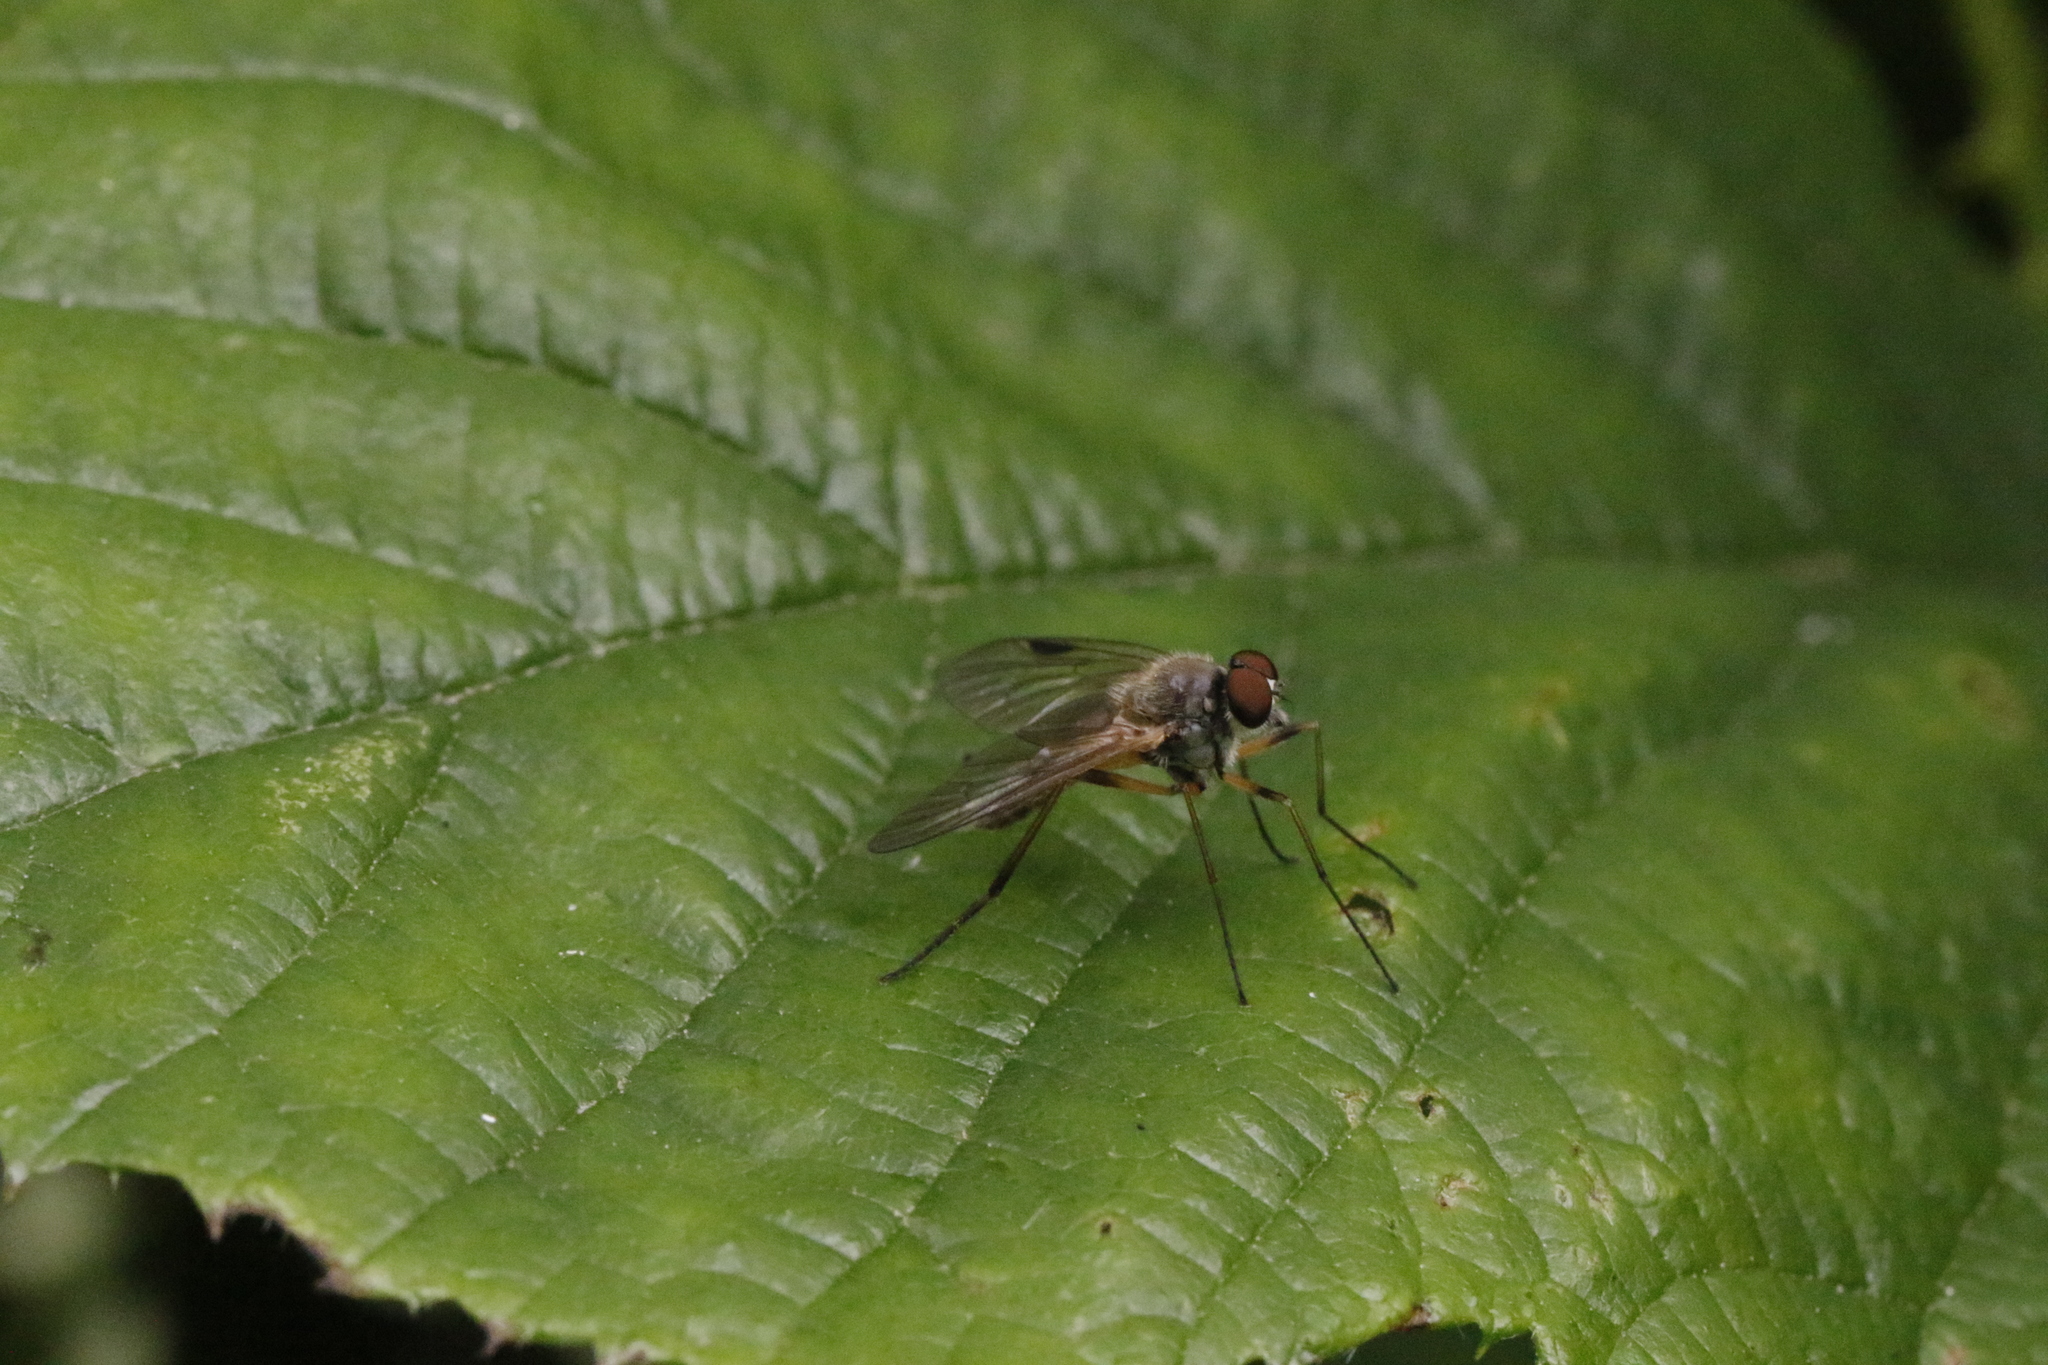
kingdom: Animalia
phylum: Arthropoda
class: Insecta
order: Diptera
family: Rhagionidae
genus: Rhagio
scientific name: Rhagio lineola
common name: Small fleck-winged snipefly
